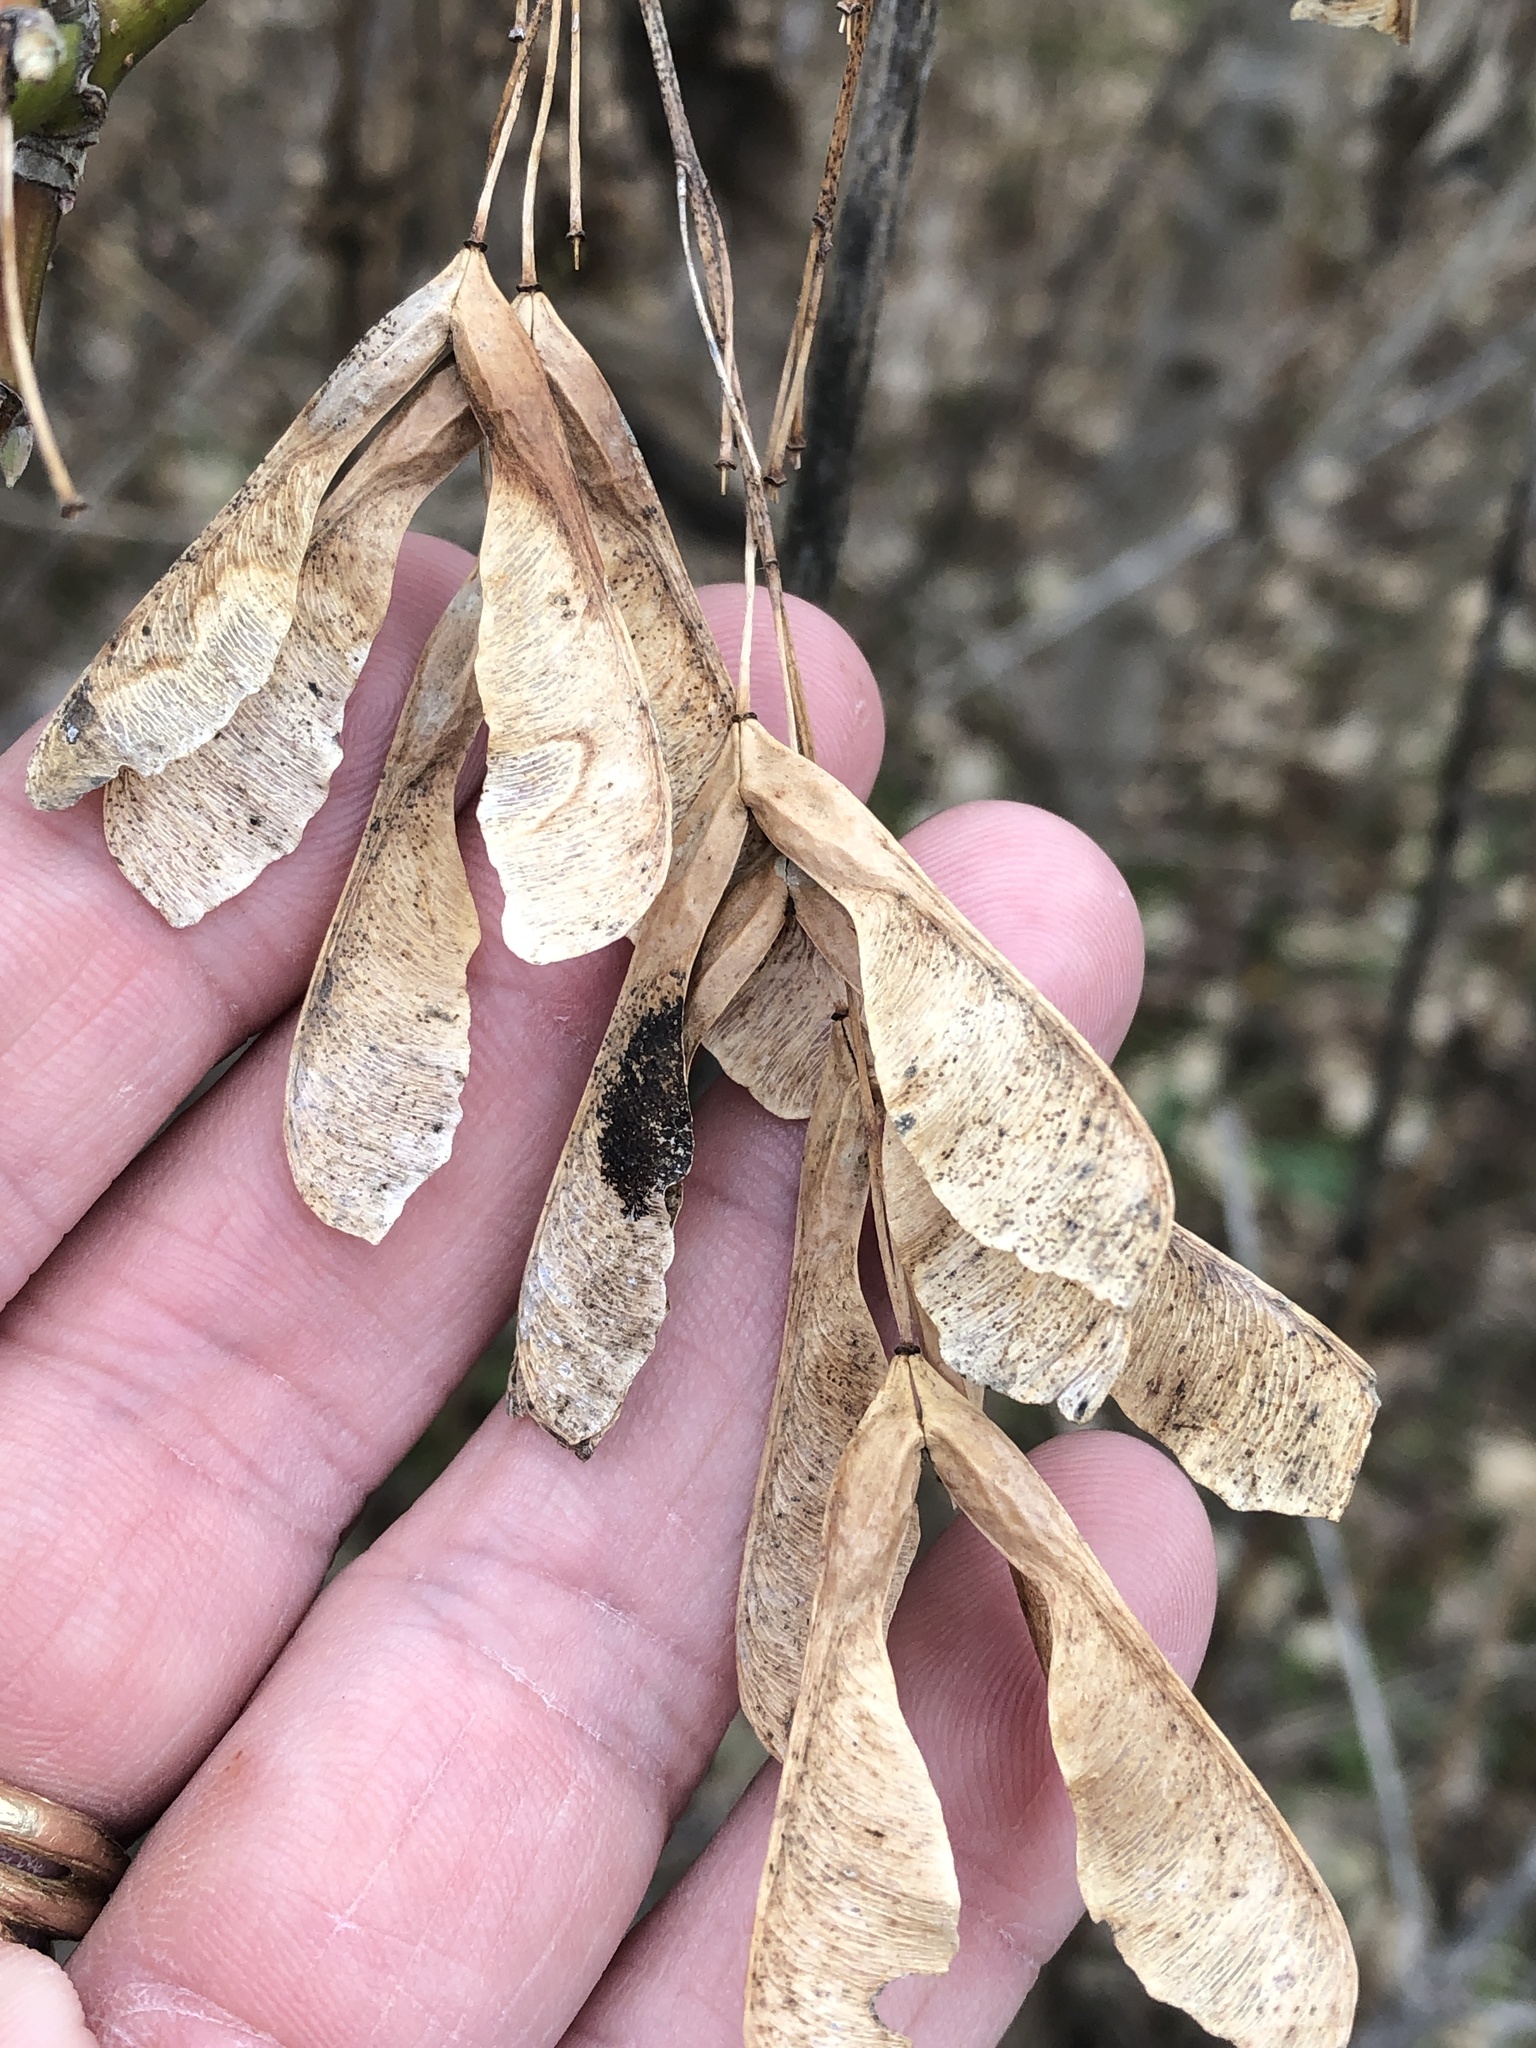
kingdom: Plantae
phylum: Tracheophyta
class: Magnoliopsida
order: Sapindales
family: Sapindaceae
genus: Acer
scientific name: Acer negundo
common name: Ashleaf maple
